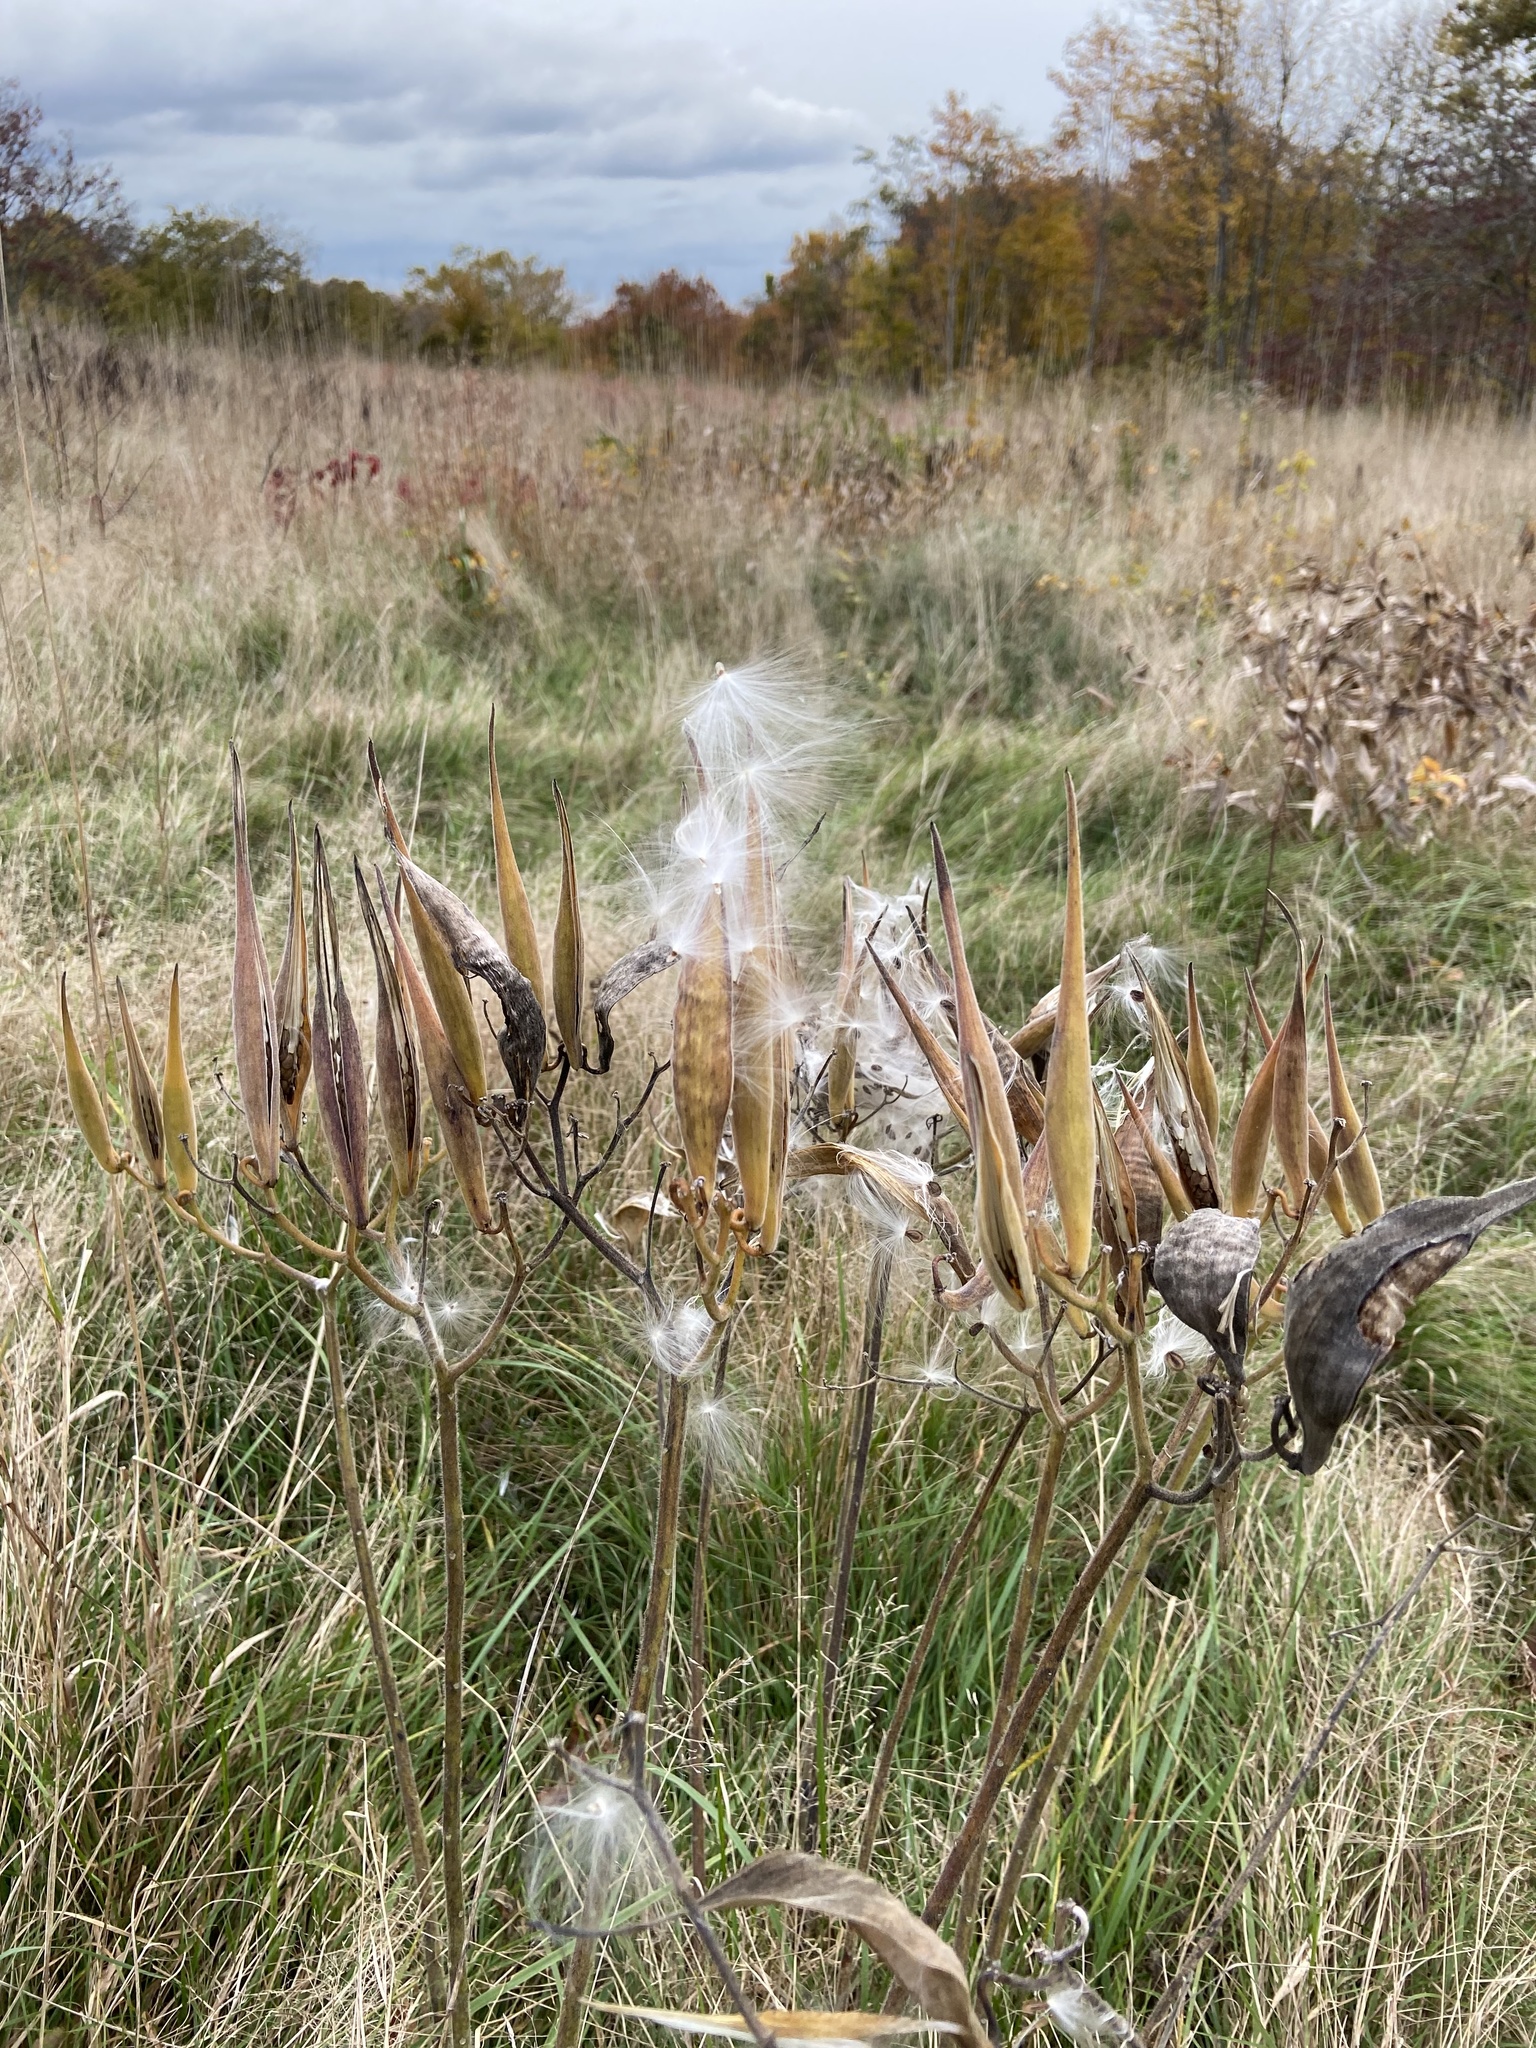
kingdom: Plantae
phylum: Tracheophyta
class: Magnoliopsida
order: Gentianales
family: Apocynaceae
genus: Asclepias
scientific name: Asclepias tuberosa
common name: Butterfly milkweed
